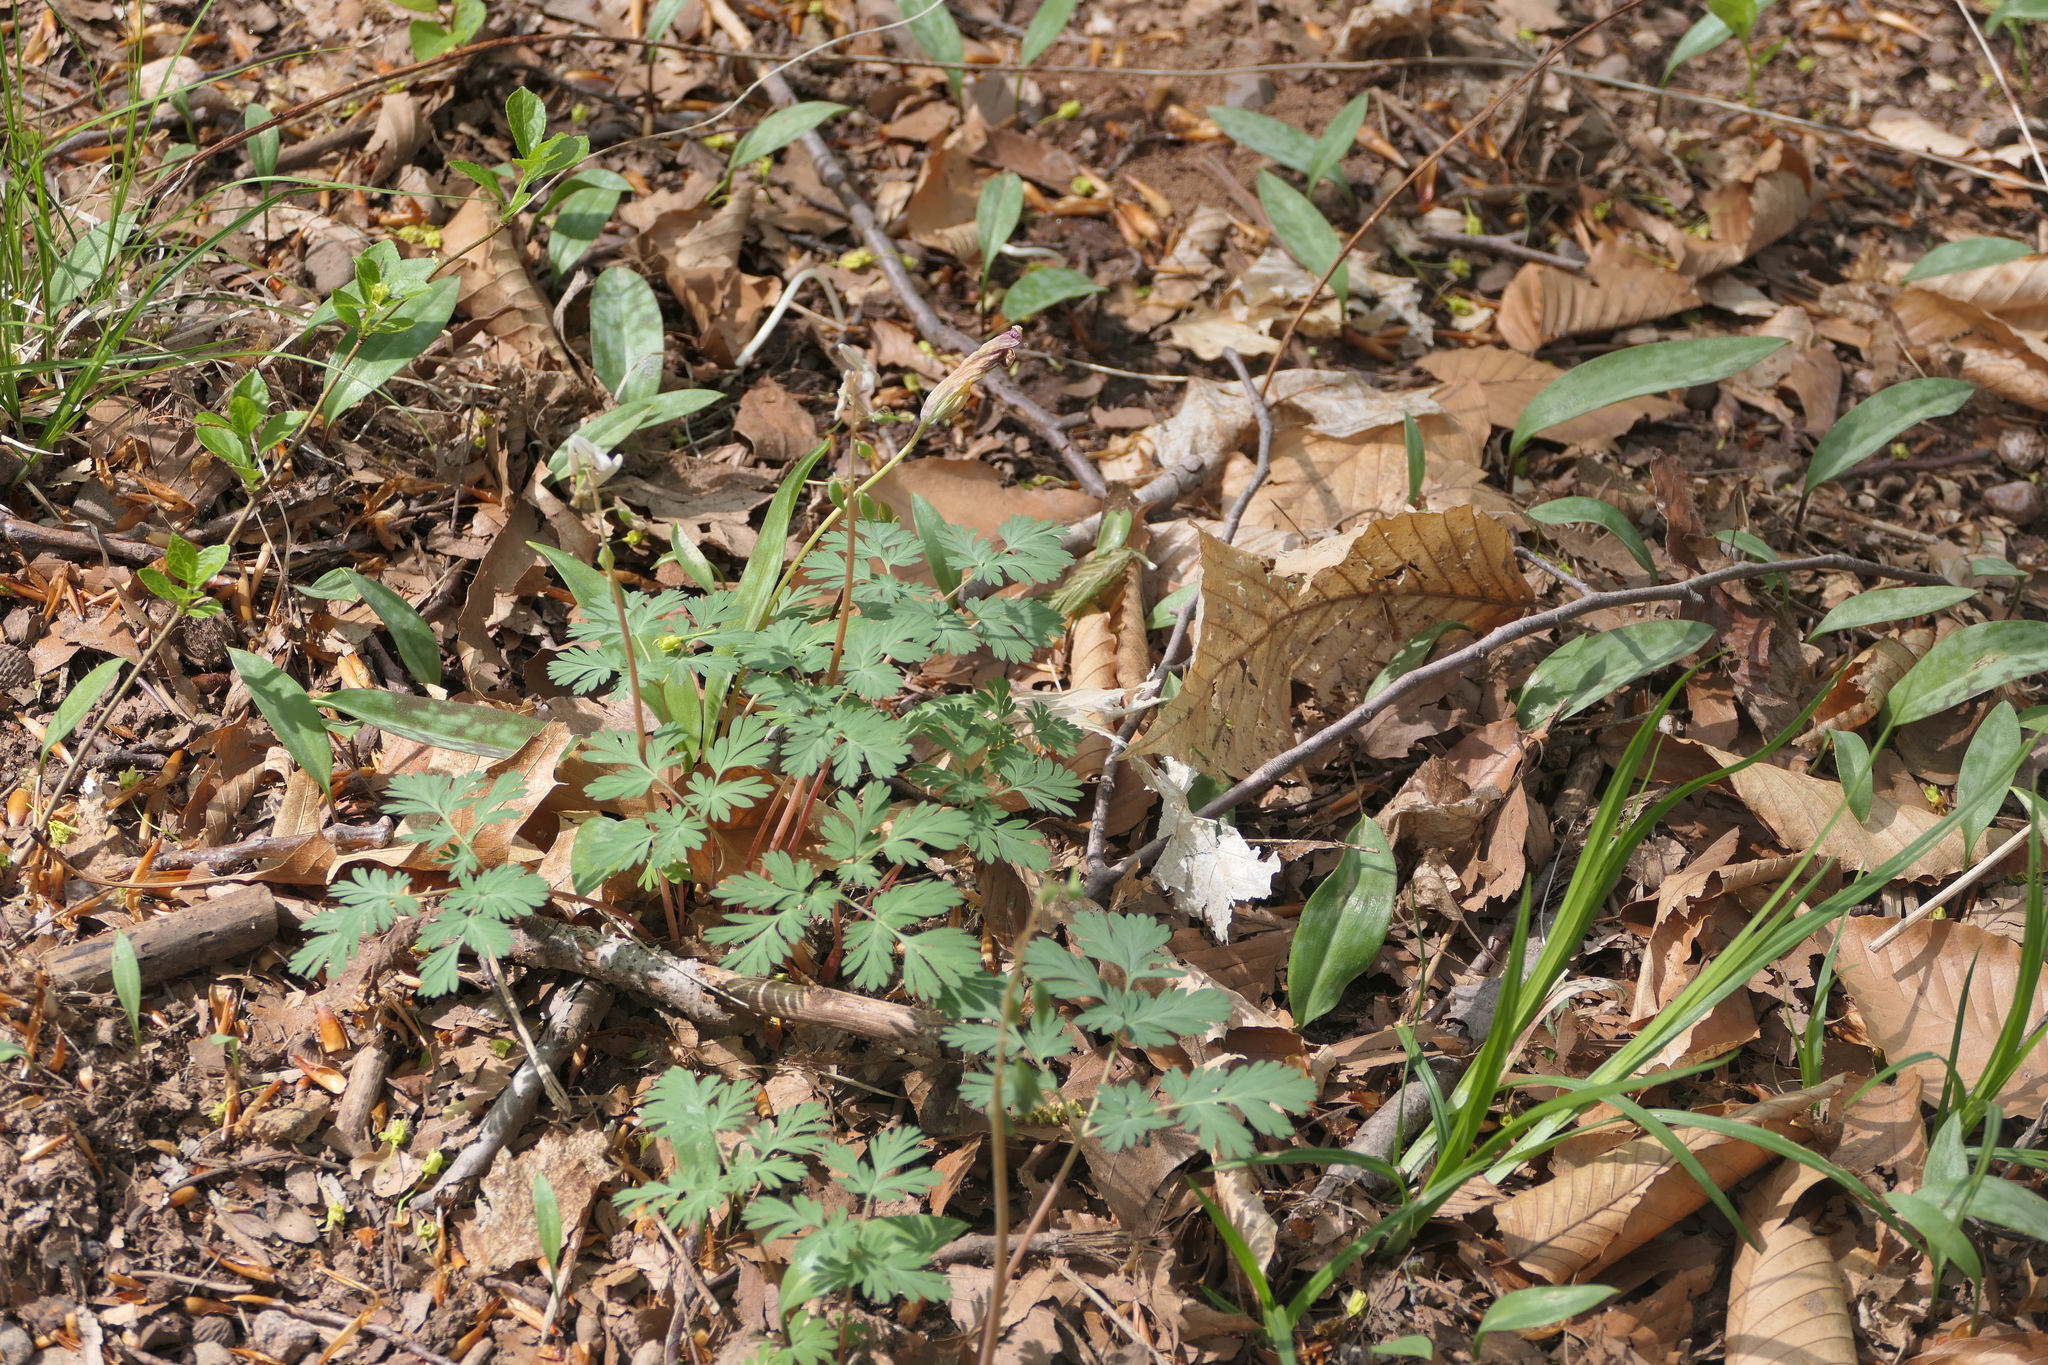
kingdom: Plantae
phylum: Tracheophyta
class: Magnoliopsida
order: Ranunculales
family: Papaveraceae
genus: Dicentra
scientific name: Dicentra cucullaria
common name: Dutchman's breeches
